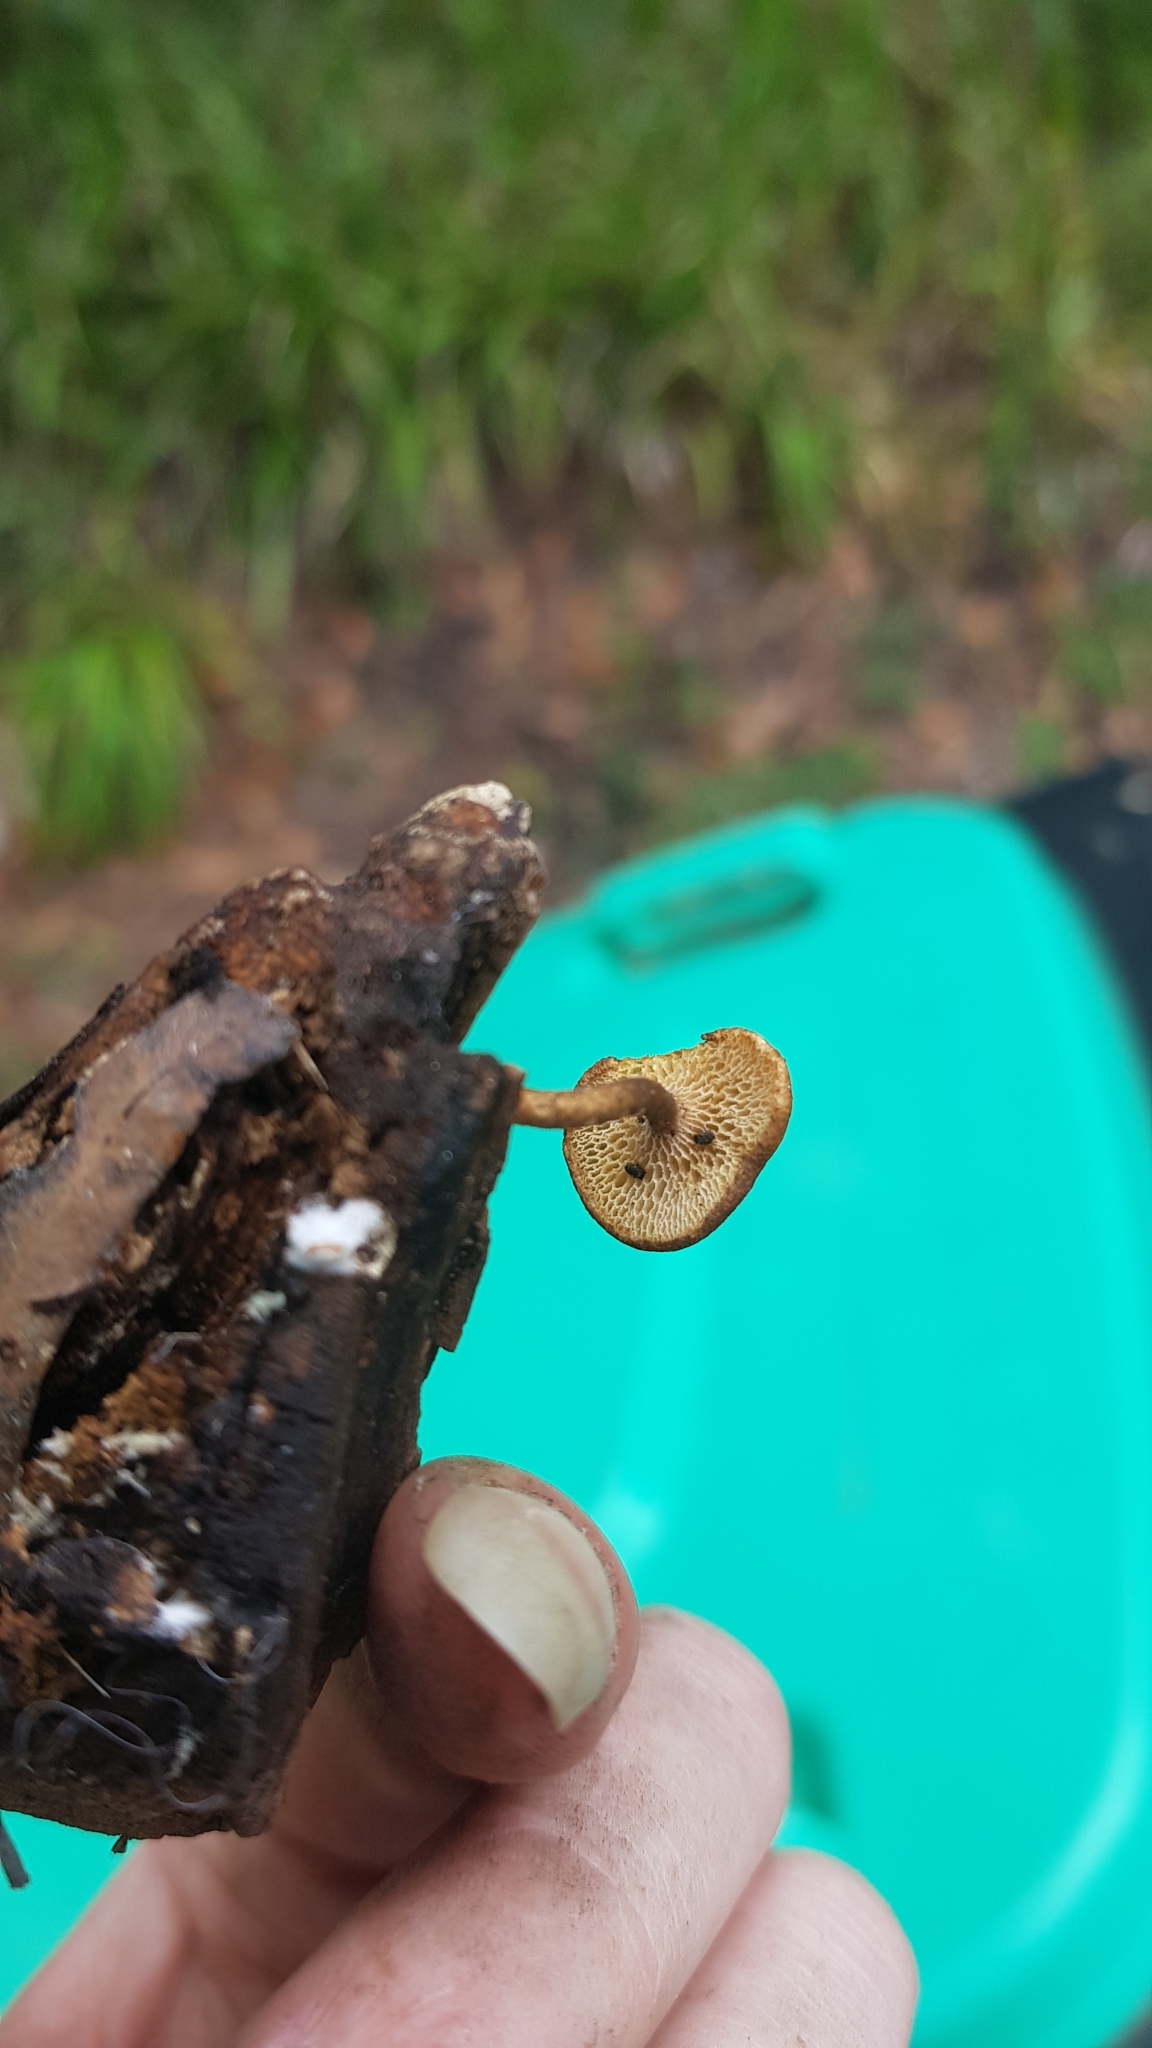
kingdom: Fungi
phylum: Basidiomycota
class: Agaricomycetes
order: Polyporales
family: Polyporaceae
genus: Lentinus
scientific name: Lentinus arcularius
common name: Spring polypore
